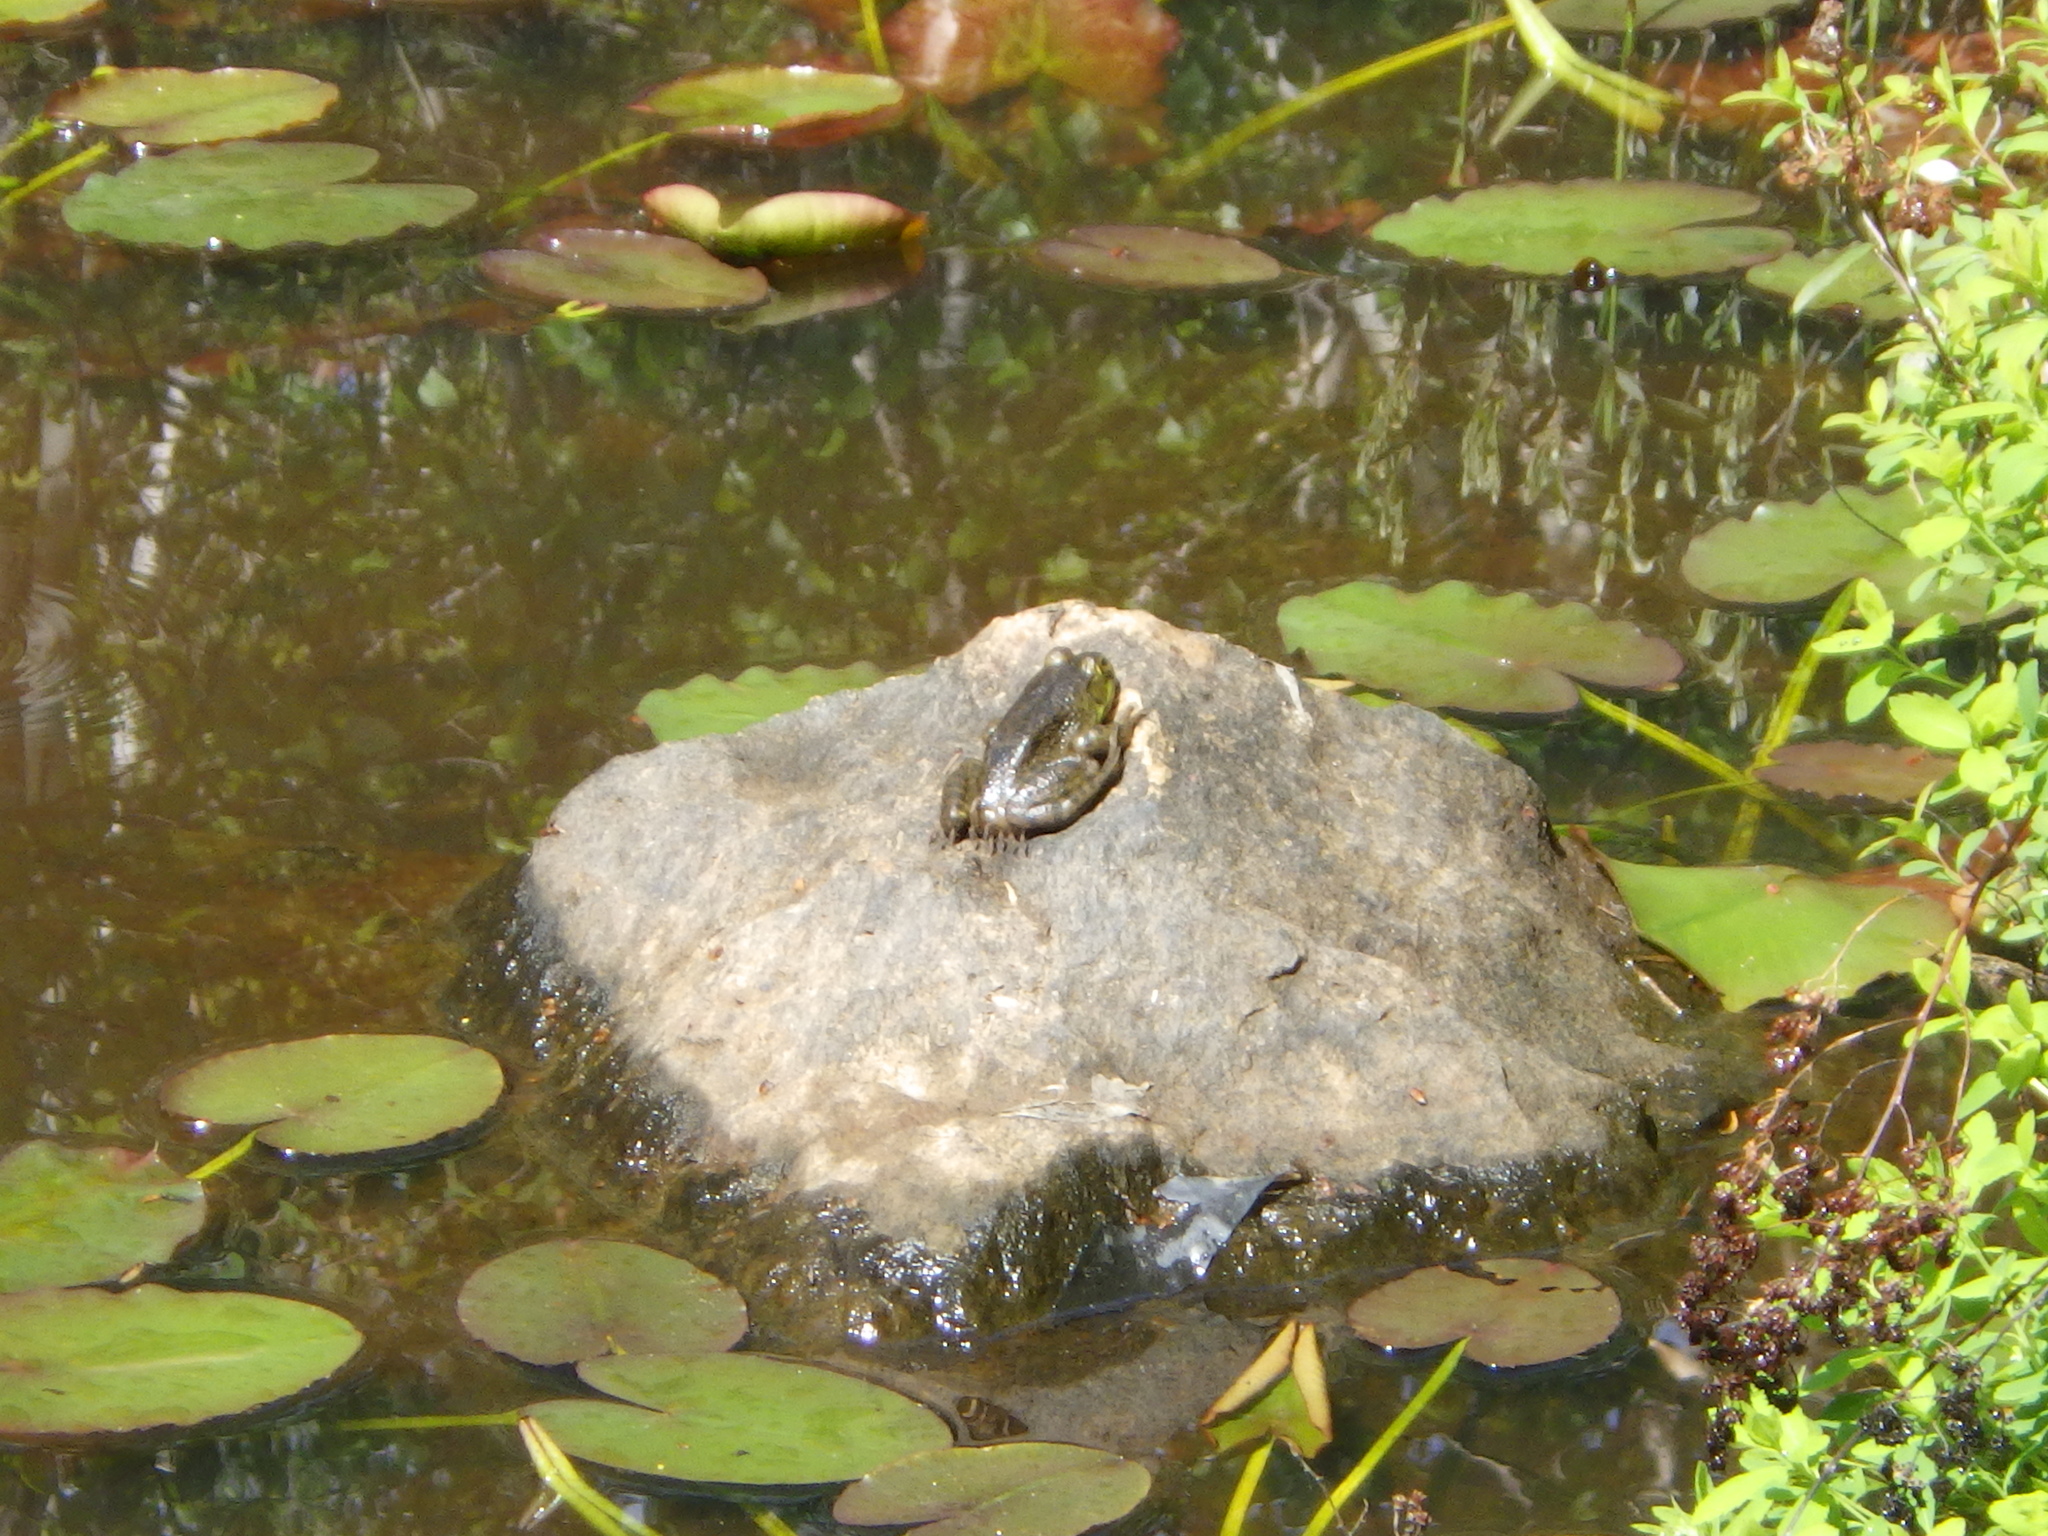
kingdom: Animalia
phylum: Chordata
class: Amphibia
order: Anura
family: Ranidae
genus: Lithobates
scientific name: Lithobates catesbeianus
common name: American bullfrog
